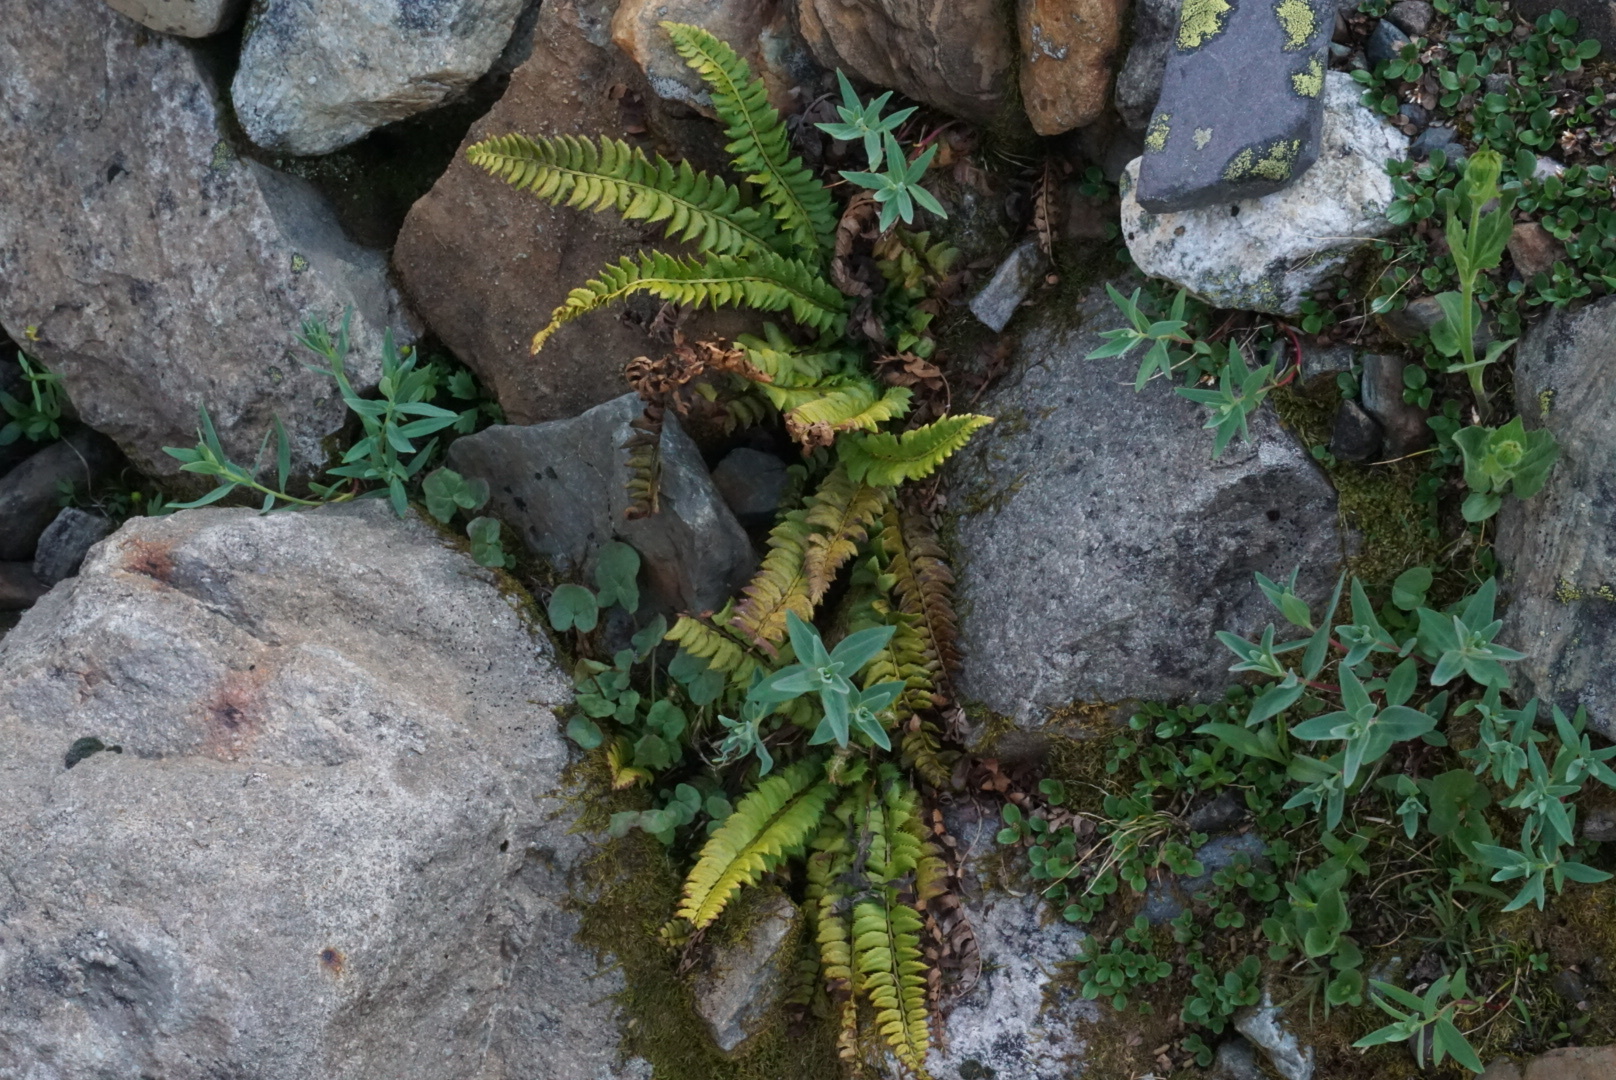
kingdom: Plantae
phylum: Tracheophyta
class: Polypodiopsida
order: Polypodiales
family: Dryopteridaceae
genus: Polystichum
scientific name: Polystichum lonchitis
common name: Holly fern
